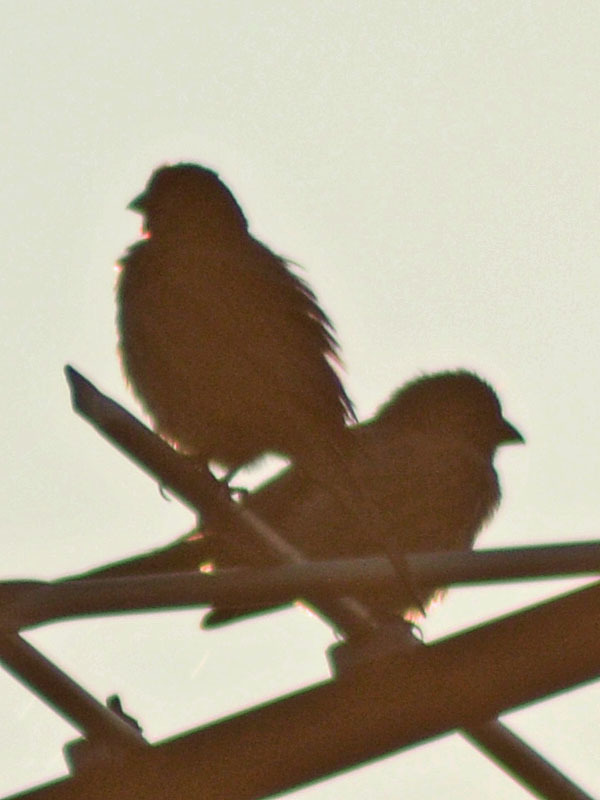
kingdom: Animalia
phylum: Chordata
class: Aves
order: Passeriformes
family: Fringillidae
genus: Haemorhous
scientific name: Haemorhous mexicanus
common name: House finch
